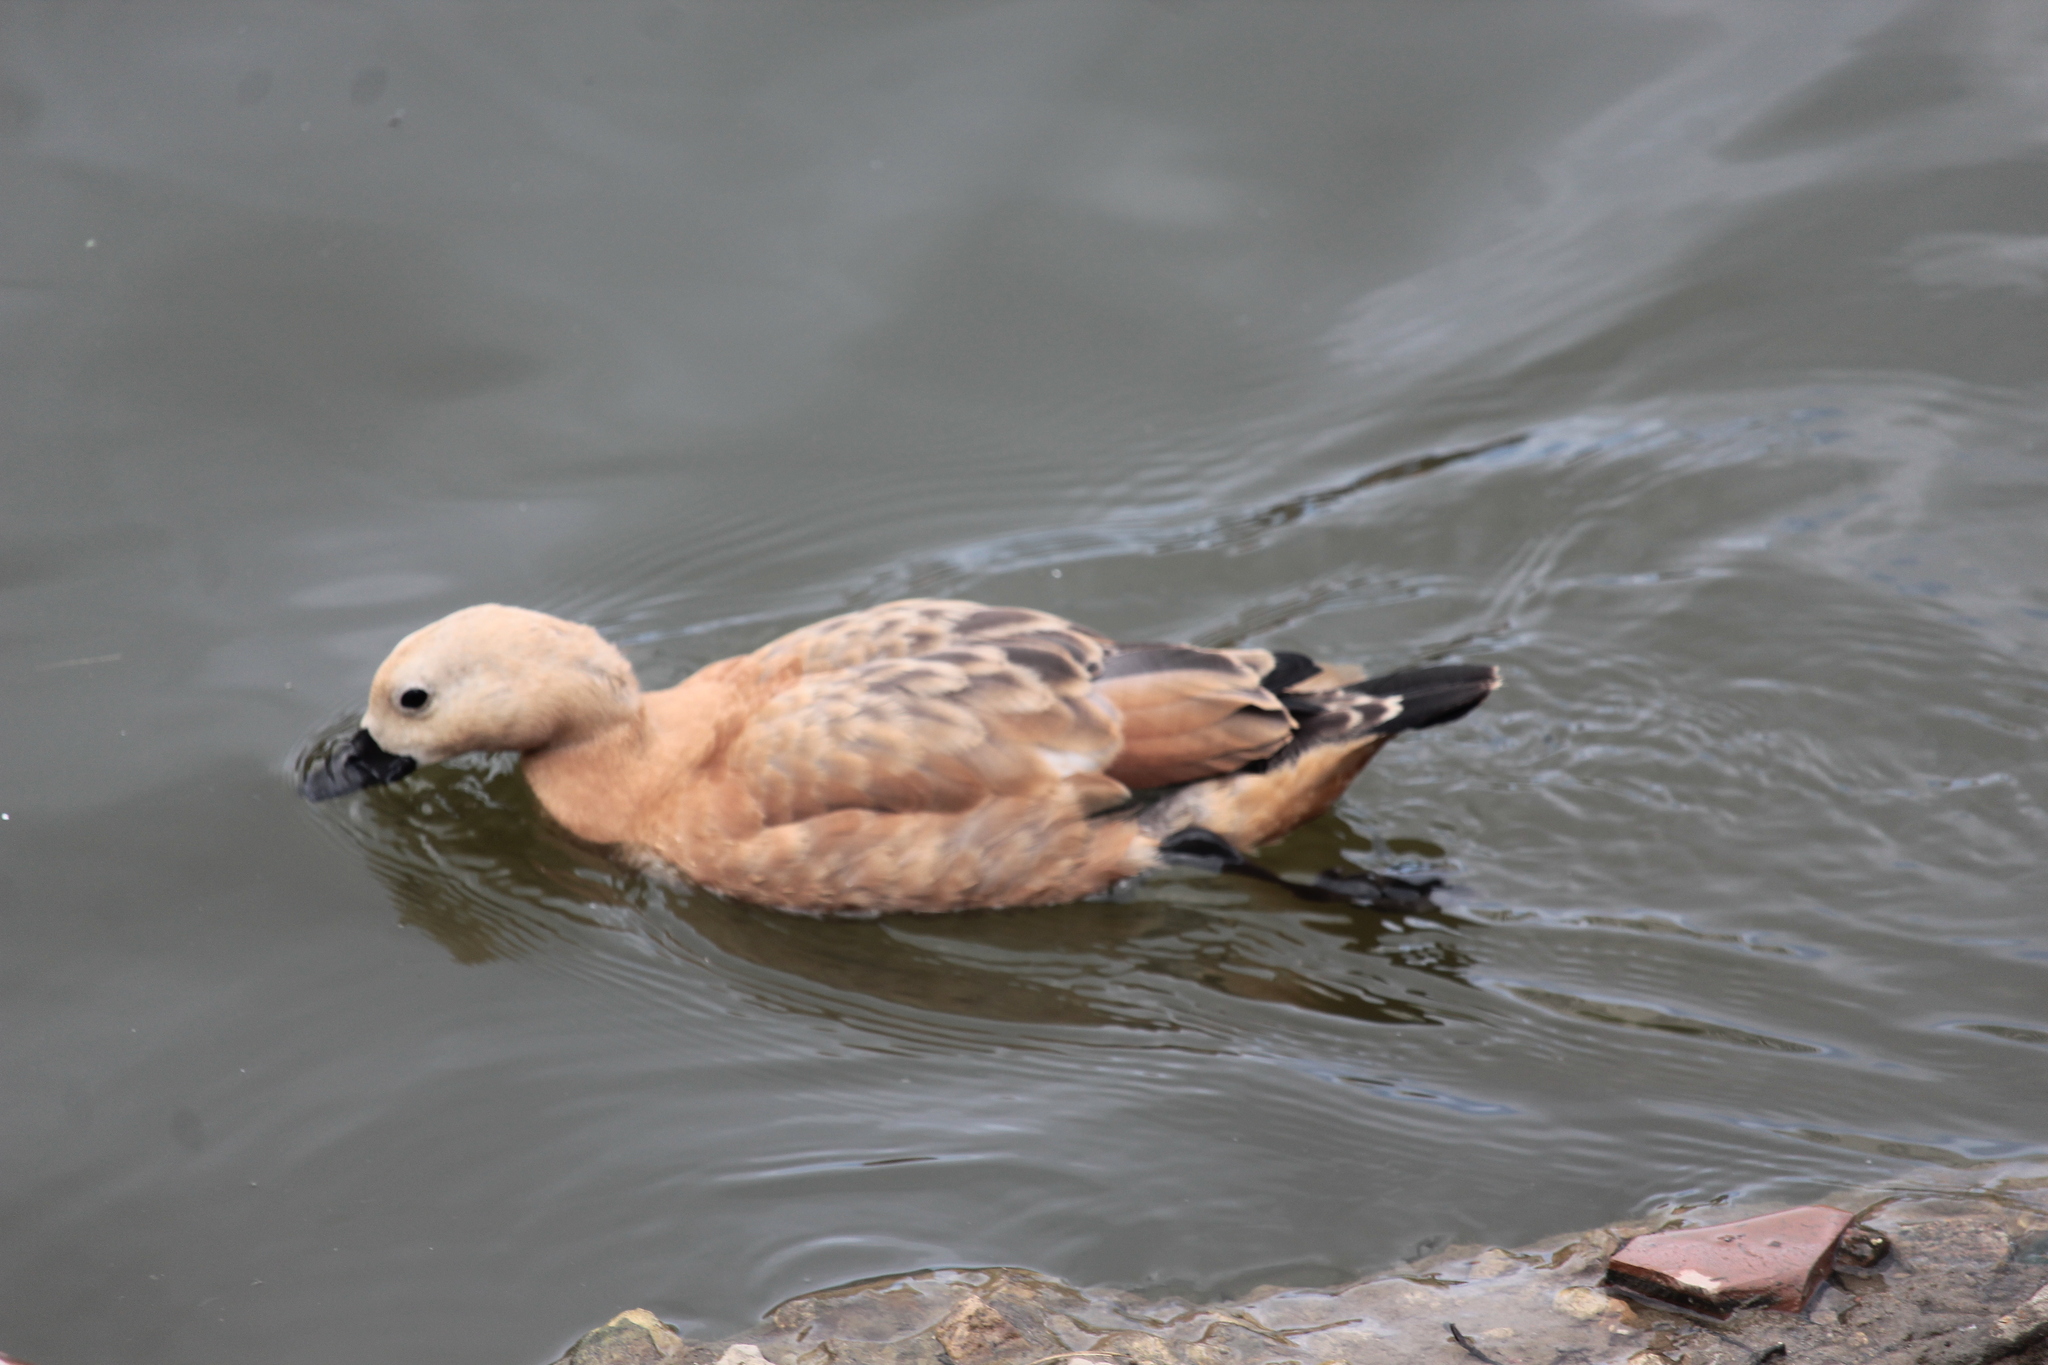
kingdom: Animalia
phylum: Chordata
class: Aves
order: Anseriformes
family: Anatidae
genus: Tadorna
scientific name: Tadorna ferruginea
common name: Ruddy shelduck
